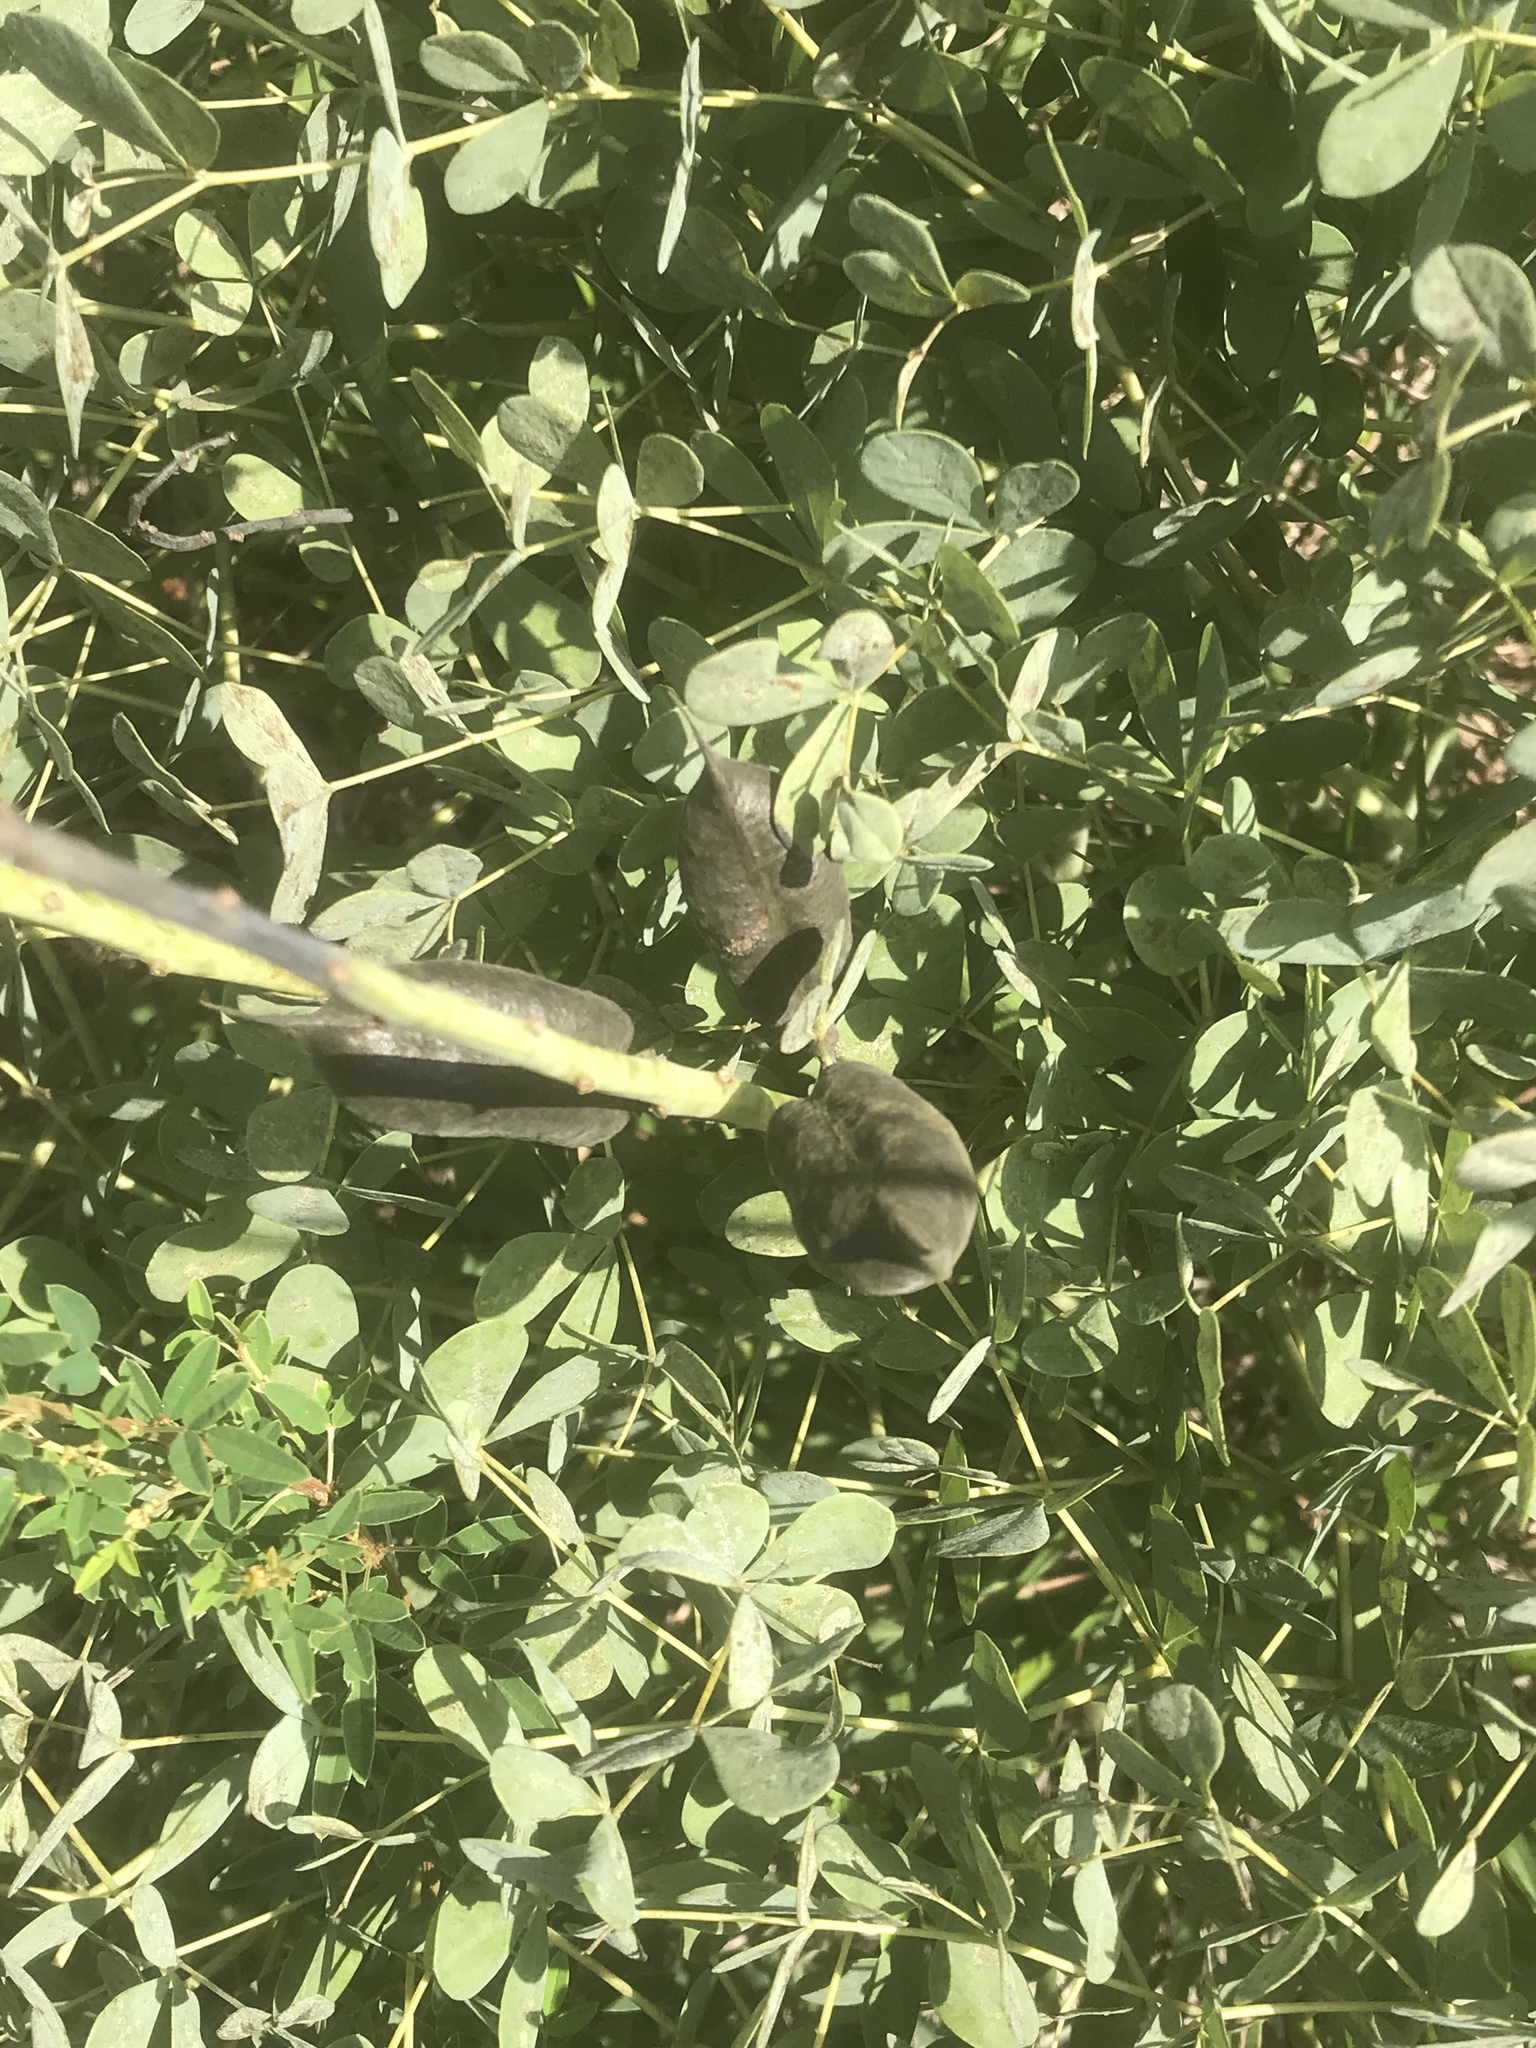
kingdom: Plantae
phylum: Tracheophyta
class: Magnoliopsida
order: Fabales
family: Fabaceae
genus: Baptisia
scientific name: Baptisia aberrans
